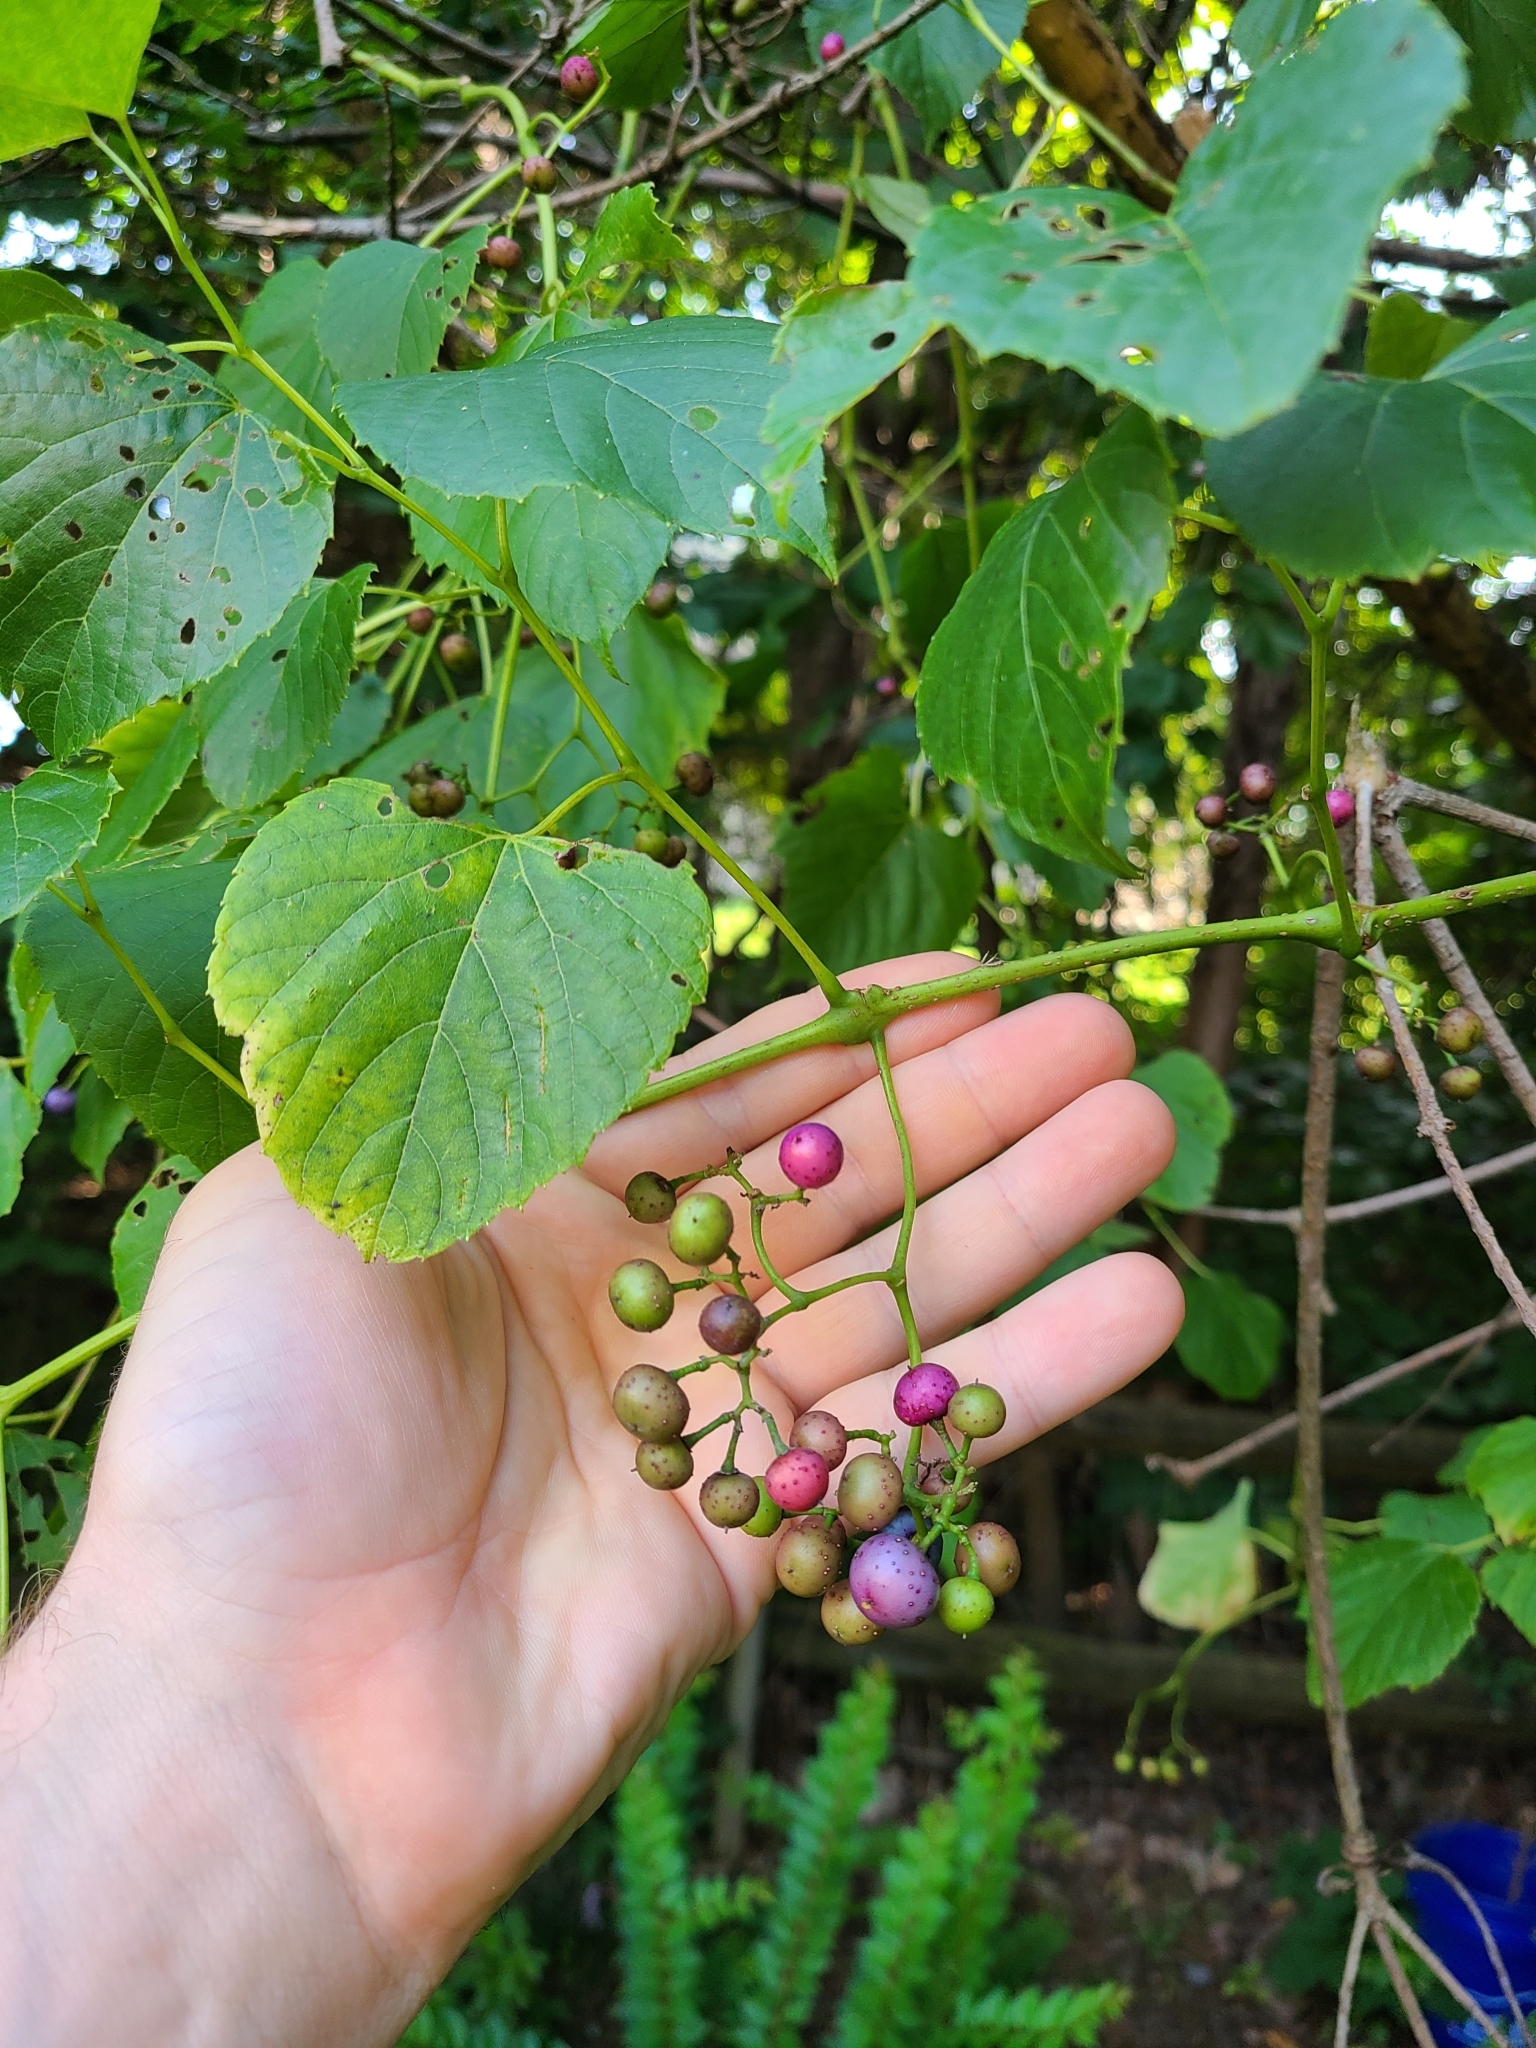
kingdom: Plantae
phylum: Tracheophyta
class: Magnoliopsida
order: Vitales
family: Vitaceae
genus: Ampelopsis
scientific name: Ampelopsis cordata
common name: Heart-leaf ampelopsis
